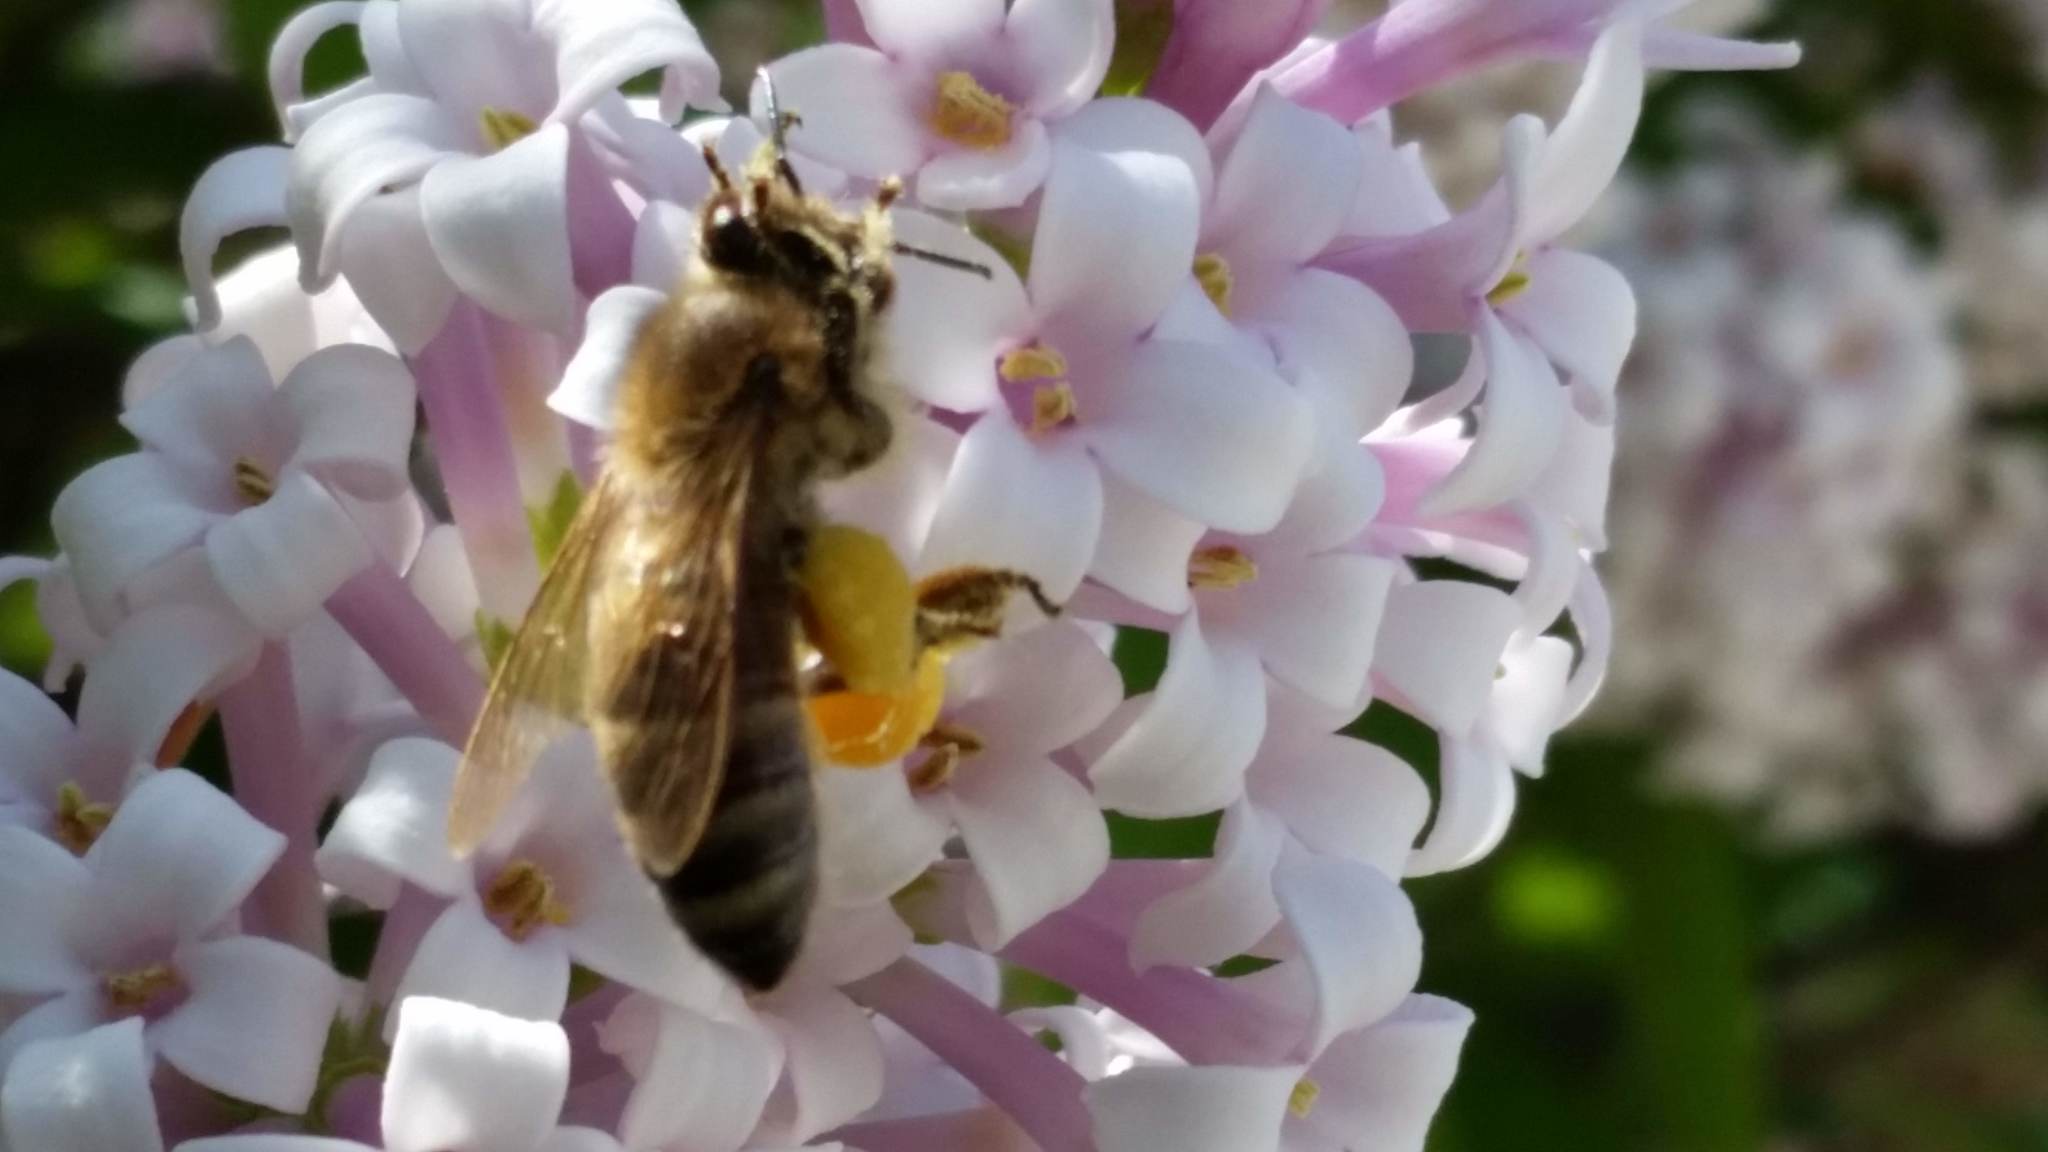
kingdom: Animalia
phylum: Arthropoda
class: Insecta
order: Hymenoptera
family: Apidae
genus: Apis
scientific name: Apis mellifera
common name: Honey bee
